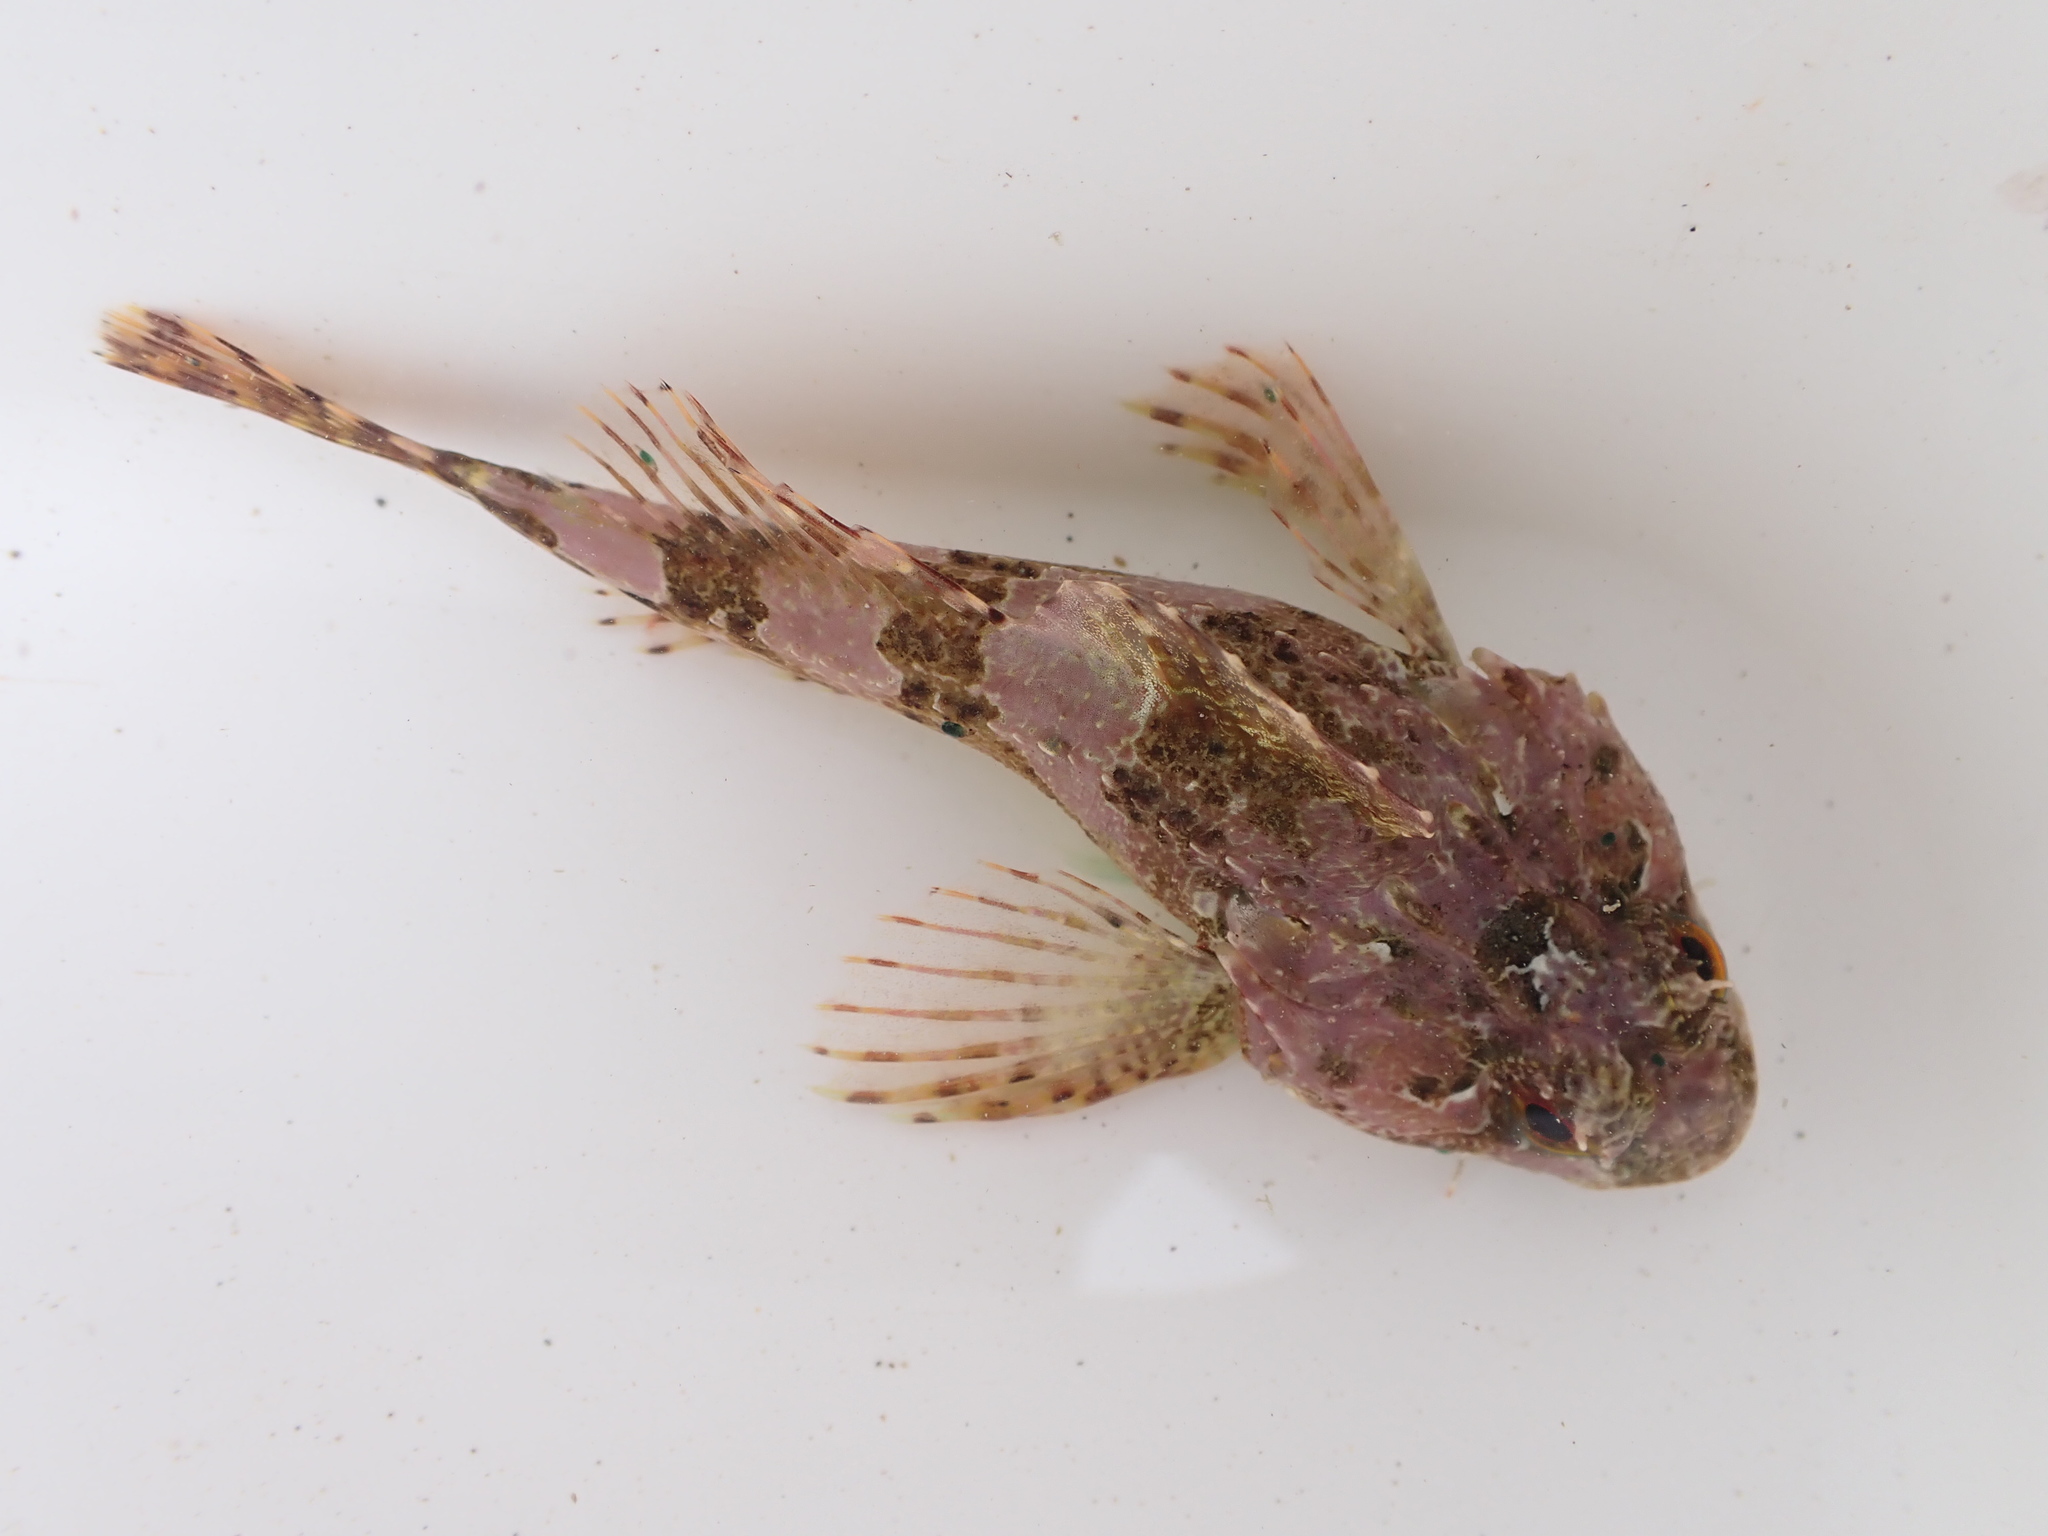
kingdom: Animalia
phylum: Chordata
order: Scorpaeniformes
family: Cottidae
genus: Taurulus
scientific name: Taurulus bubalis
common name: Sea scorpion
